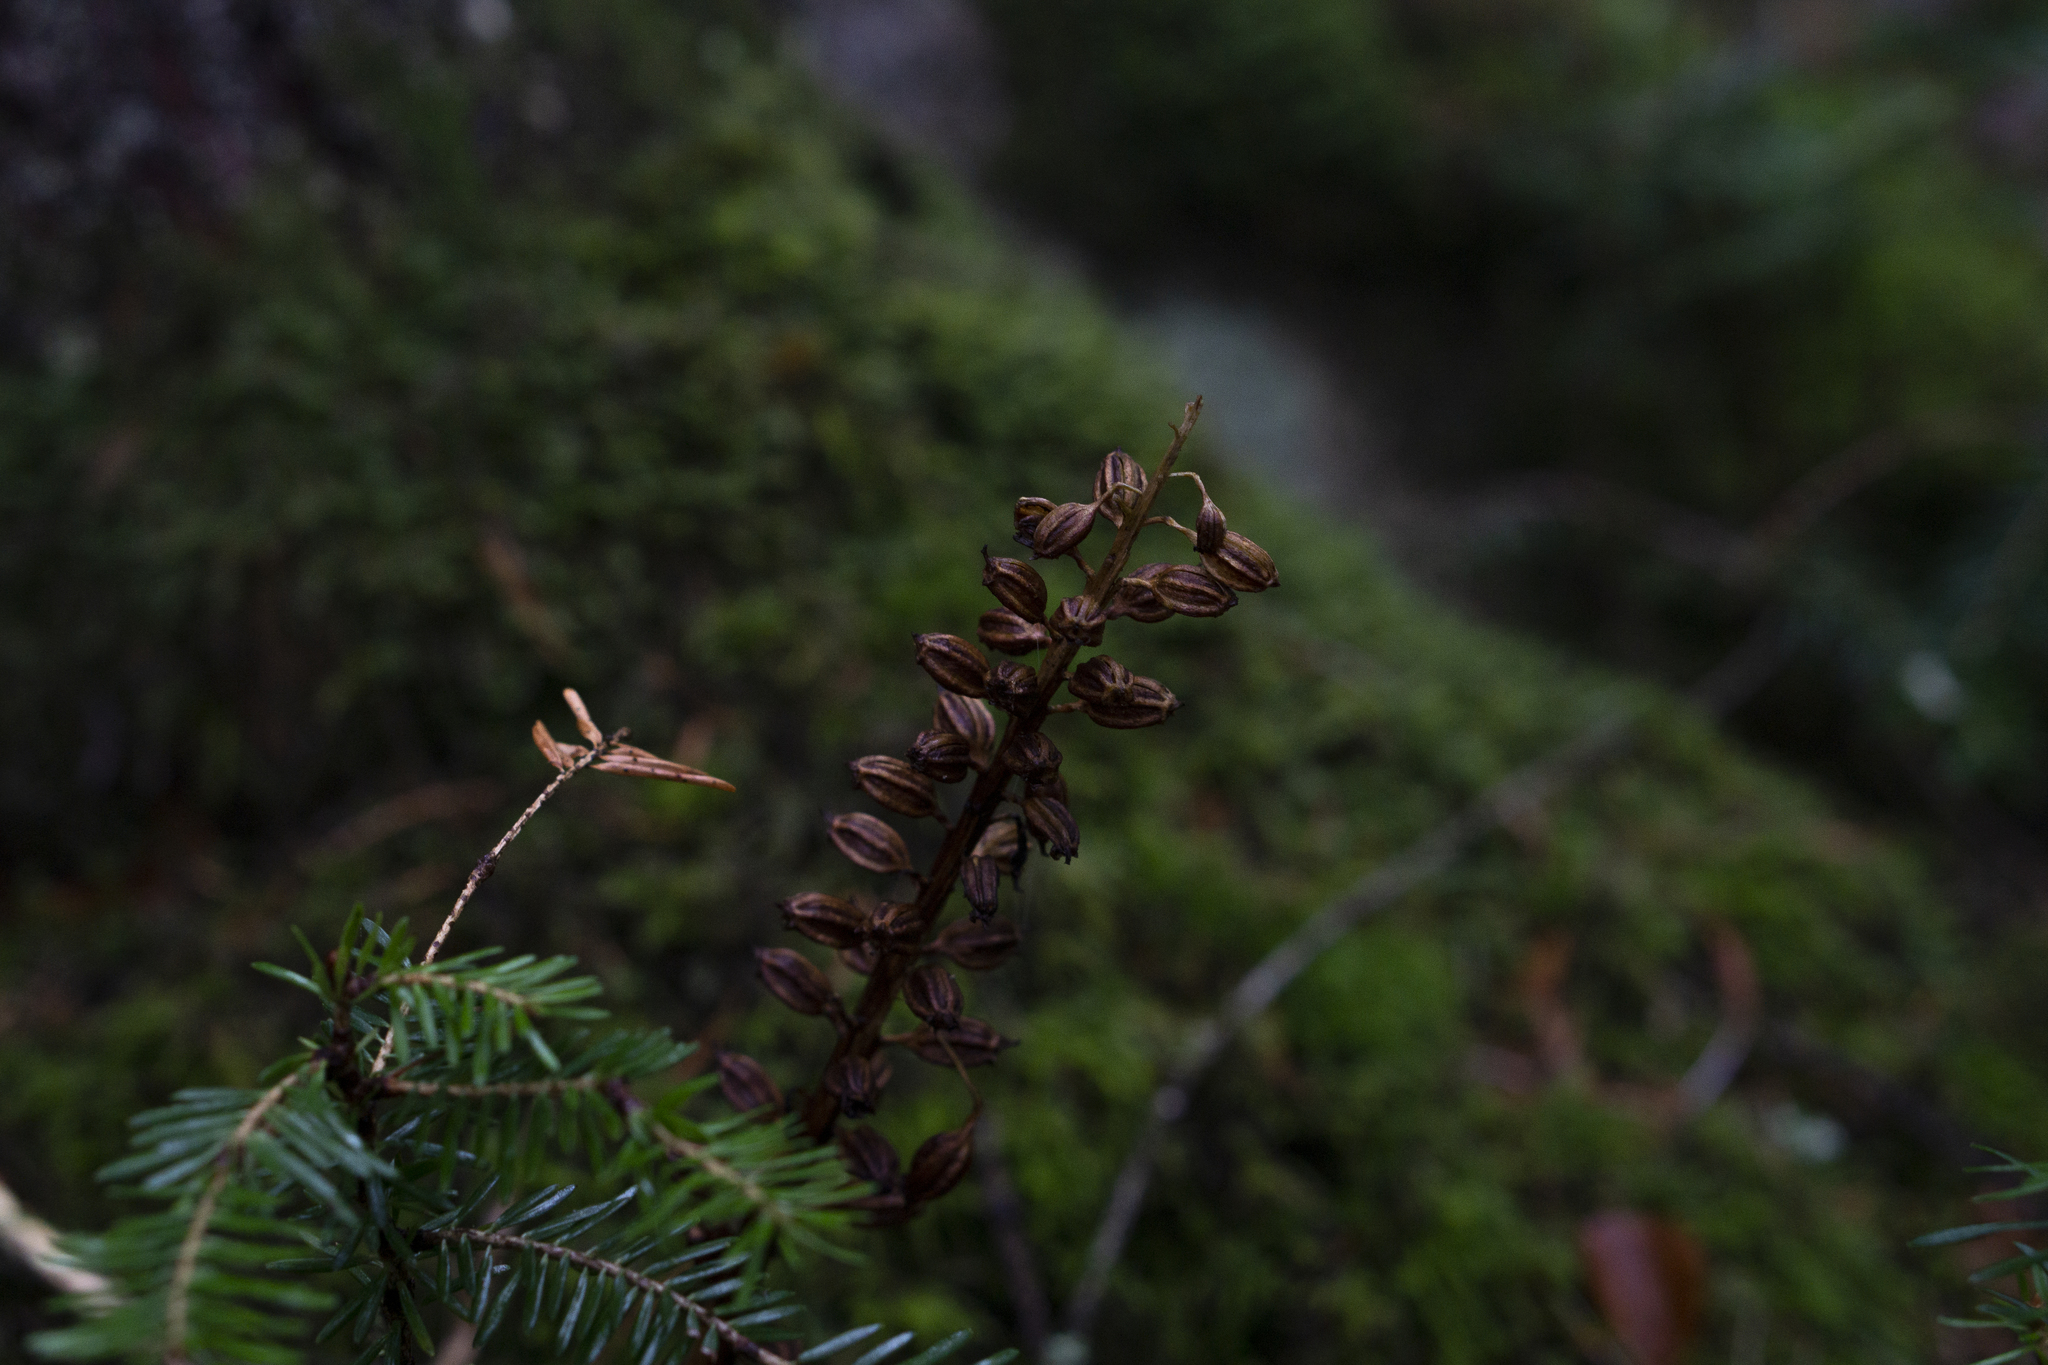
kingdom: Plantae
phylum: Tracheophyta
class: Liliopsida
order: Asparagales
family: Orchidaceae
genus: Neottia
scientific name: Neottia nidus-avis
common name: Bird's-nest orchid
